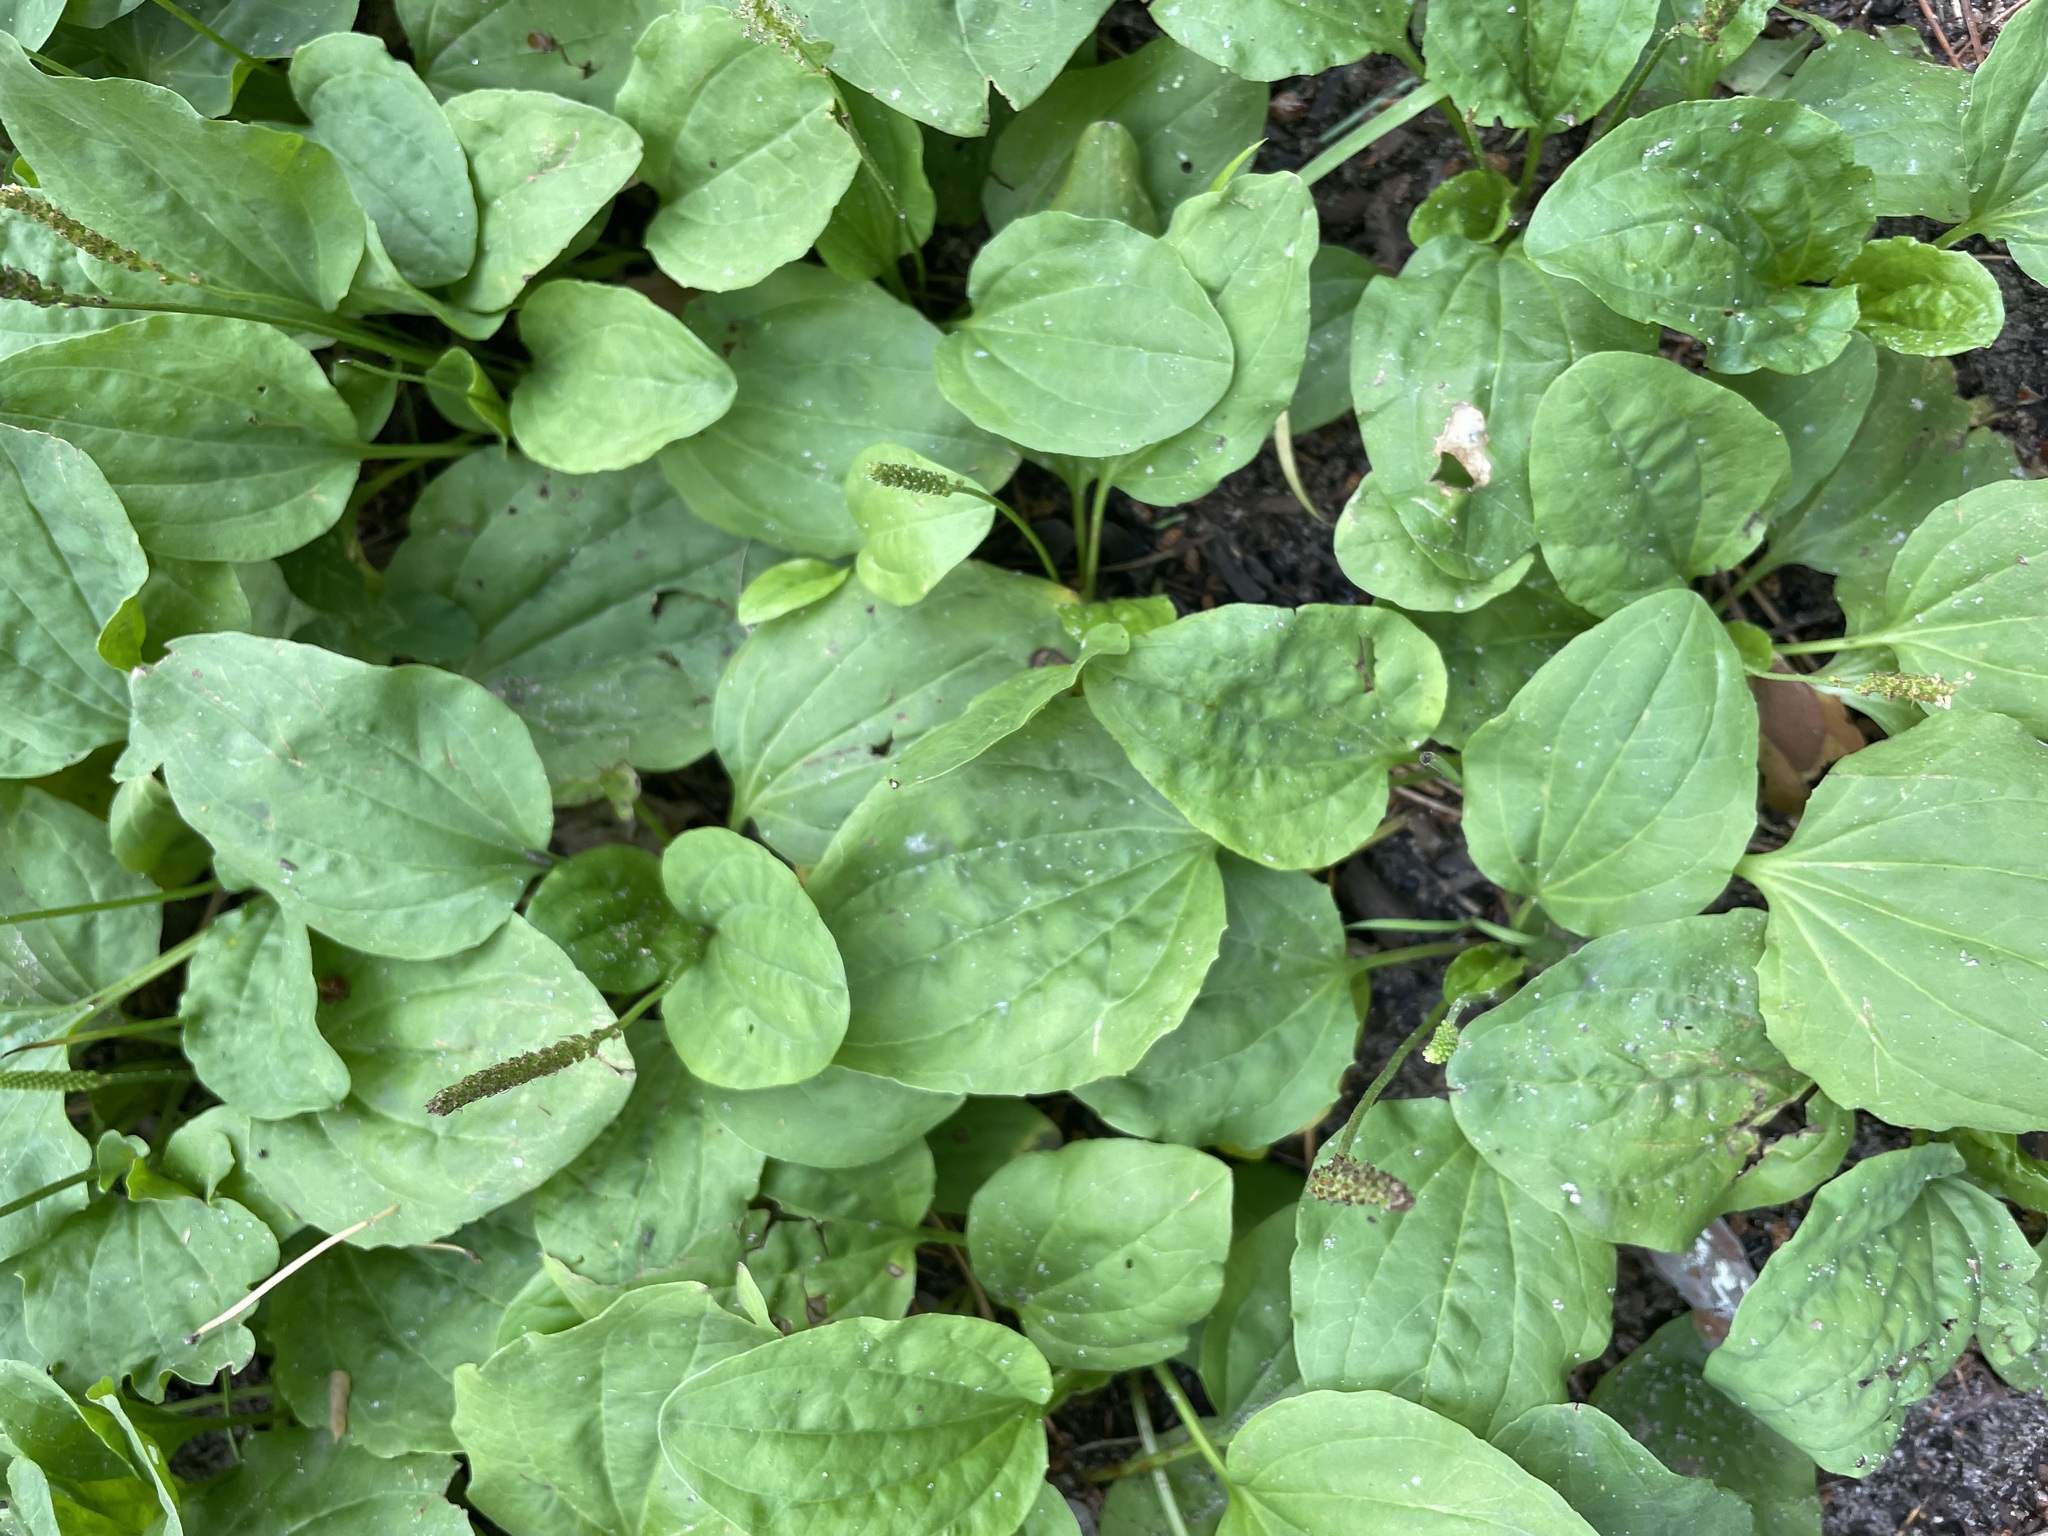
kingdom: Plantae
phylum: Tracheophyta
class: Magnoliopsida
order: Lamiales
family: Plantaginaceae
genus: Plantago
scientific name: Plantago major
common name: Common plantain
